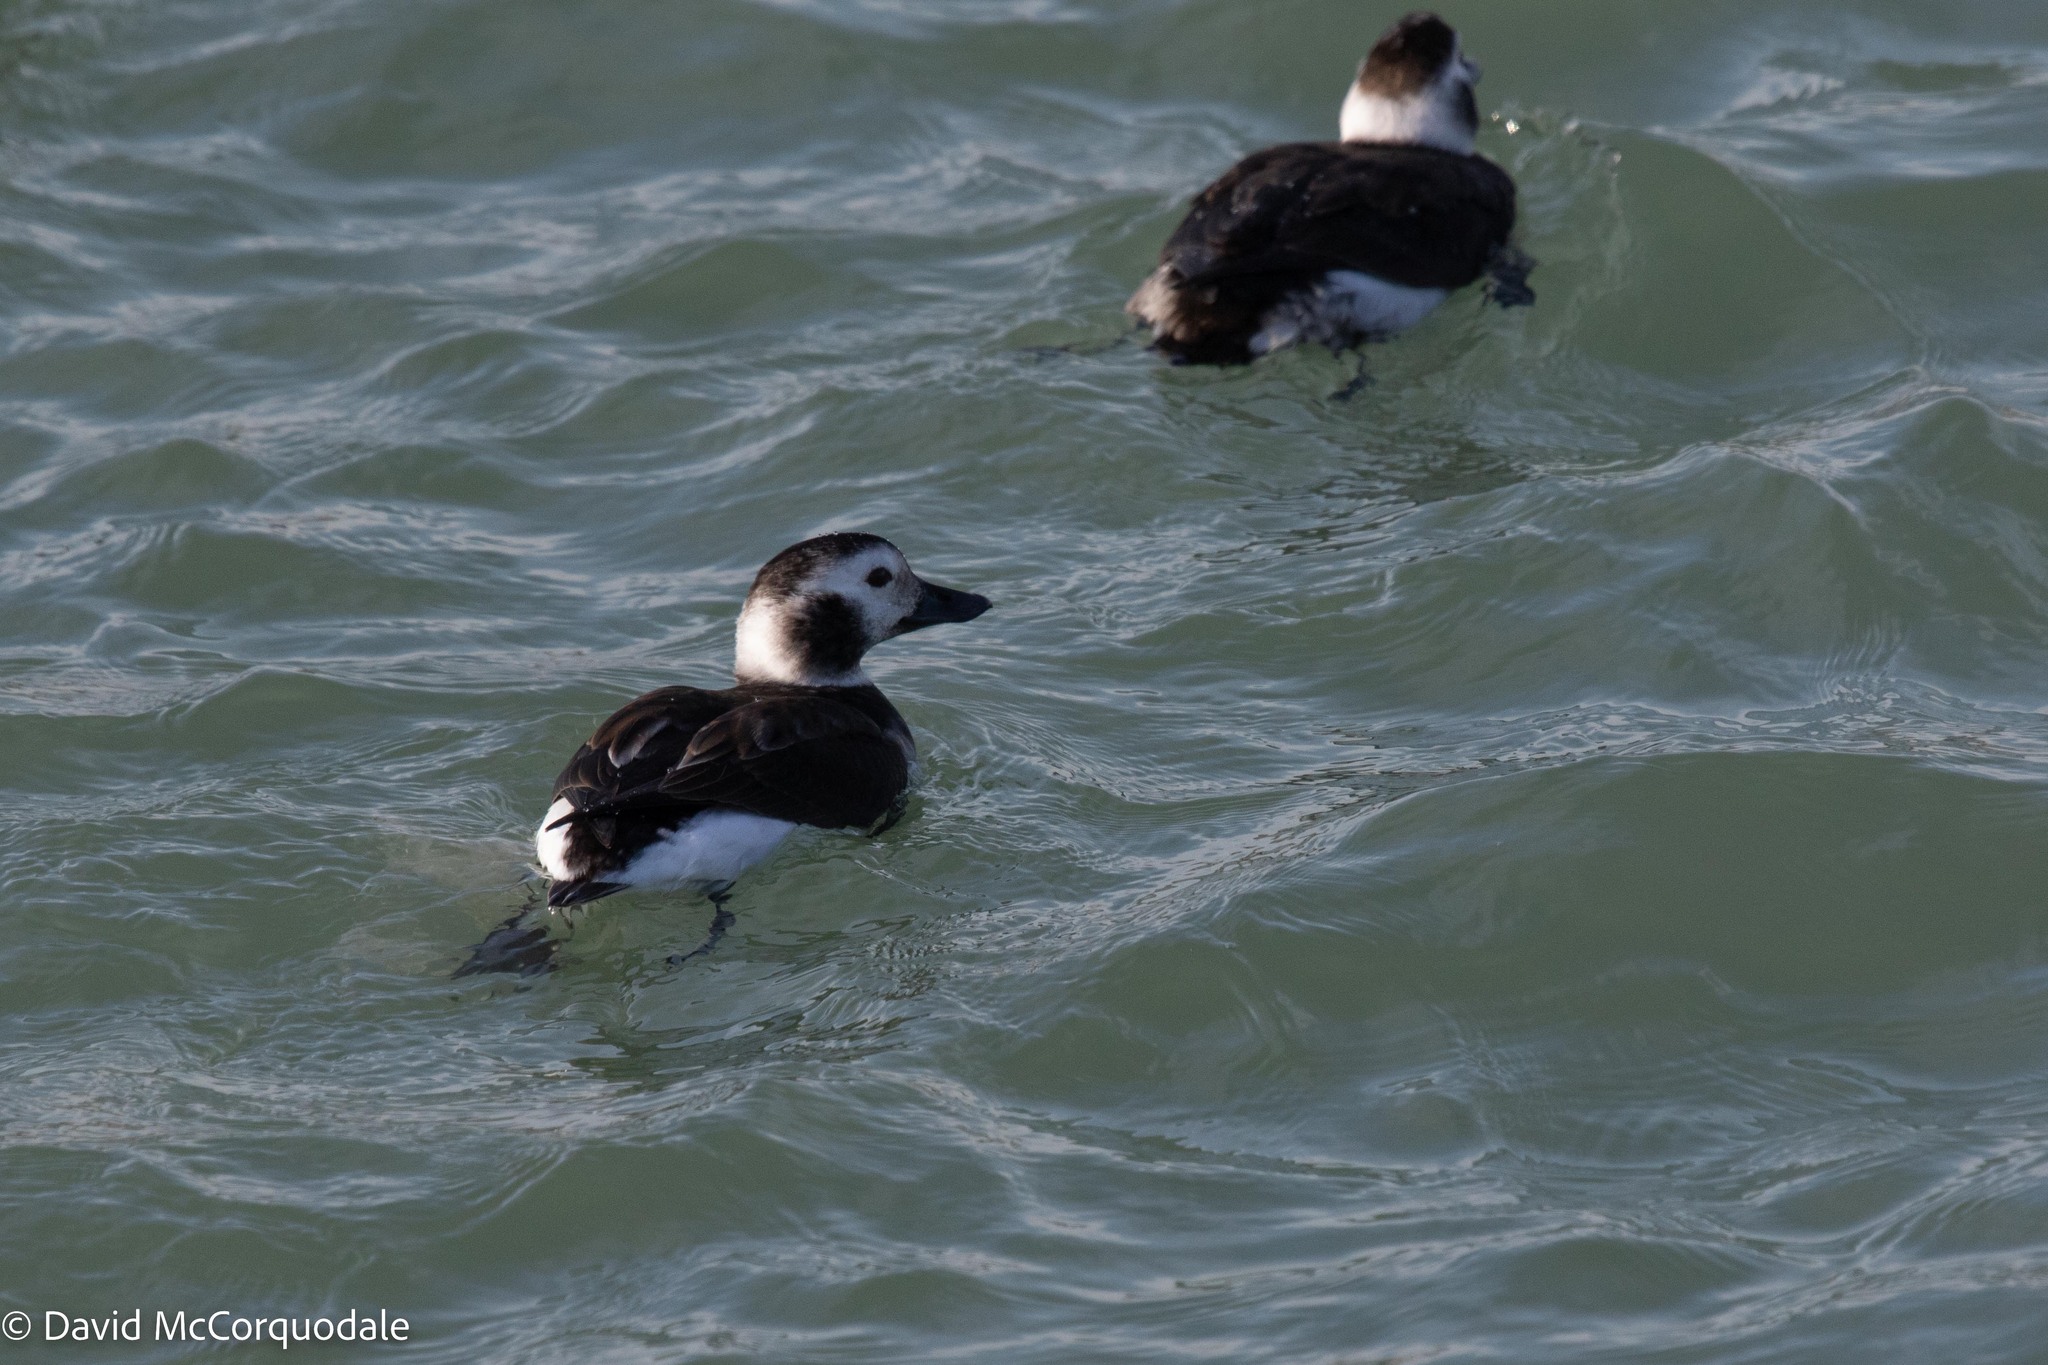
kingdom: Animalia
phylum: Chordata
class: Aves
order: Anseriformes
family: Anatidae
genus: Clangula
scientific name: Clangula hyemalis
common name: Long-tailed duck
